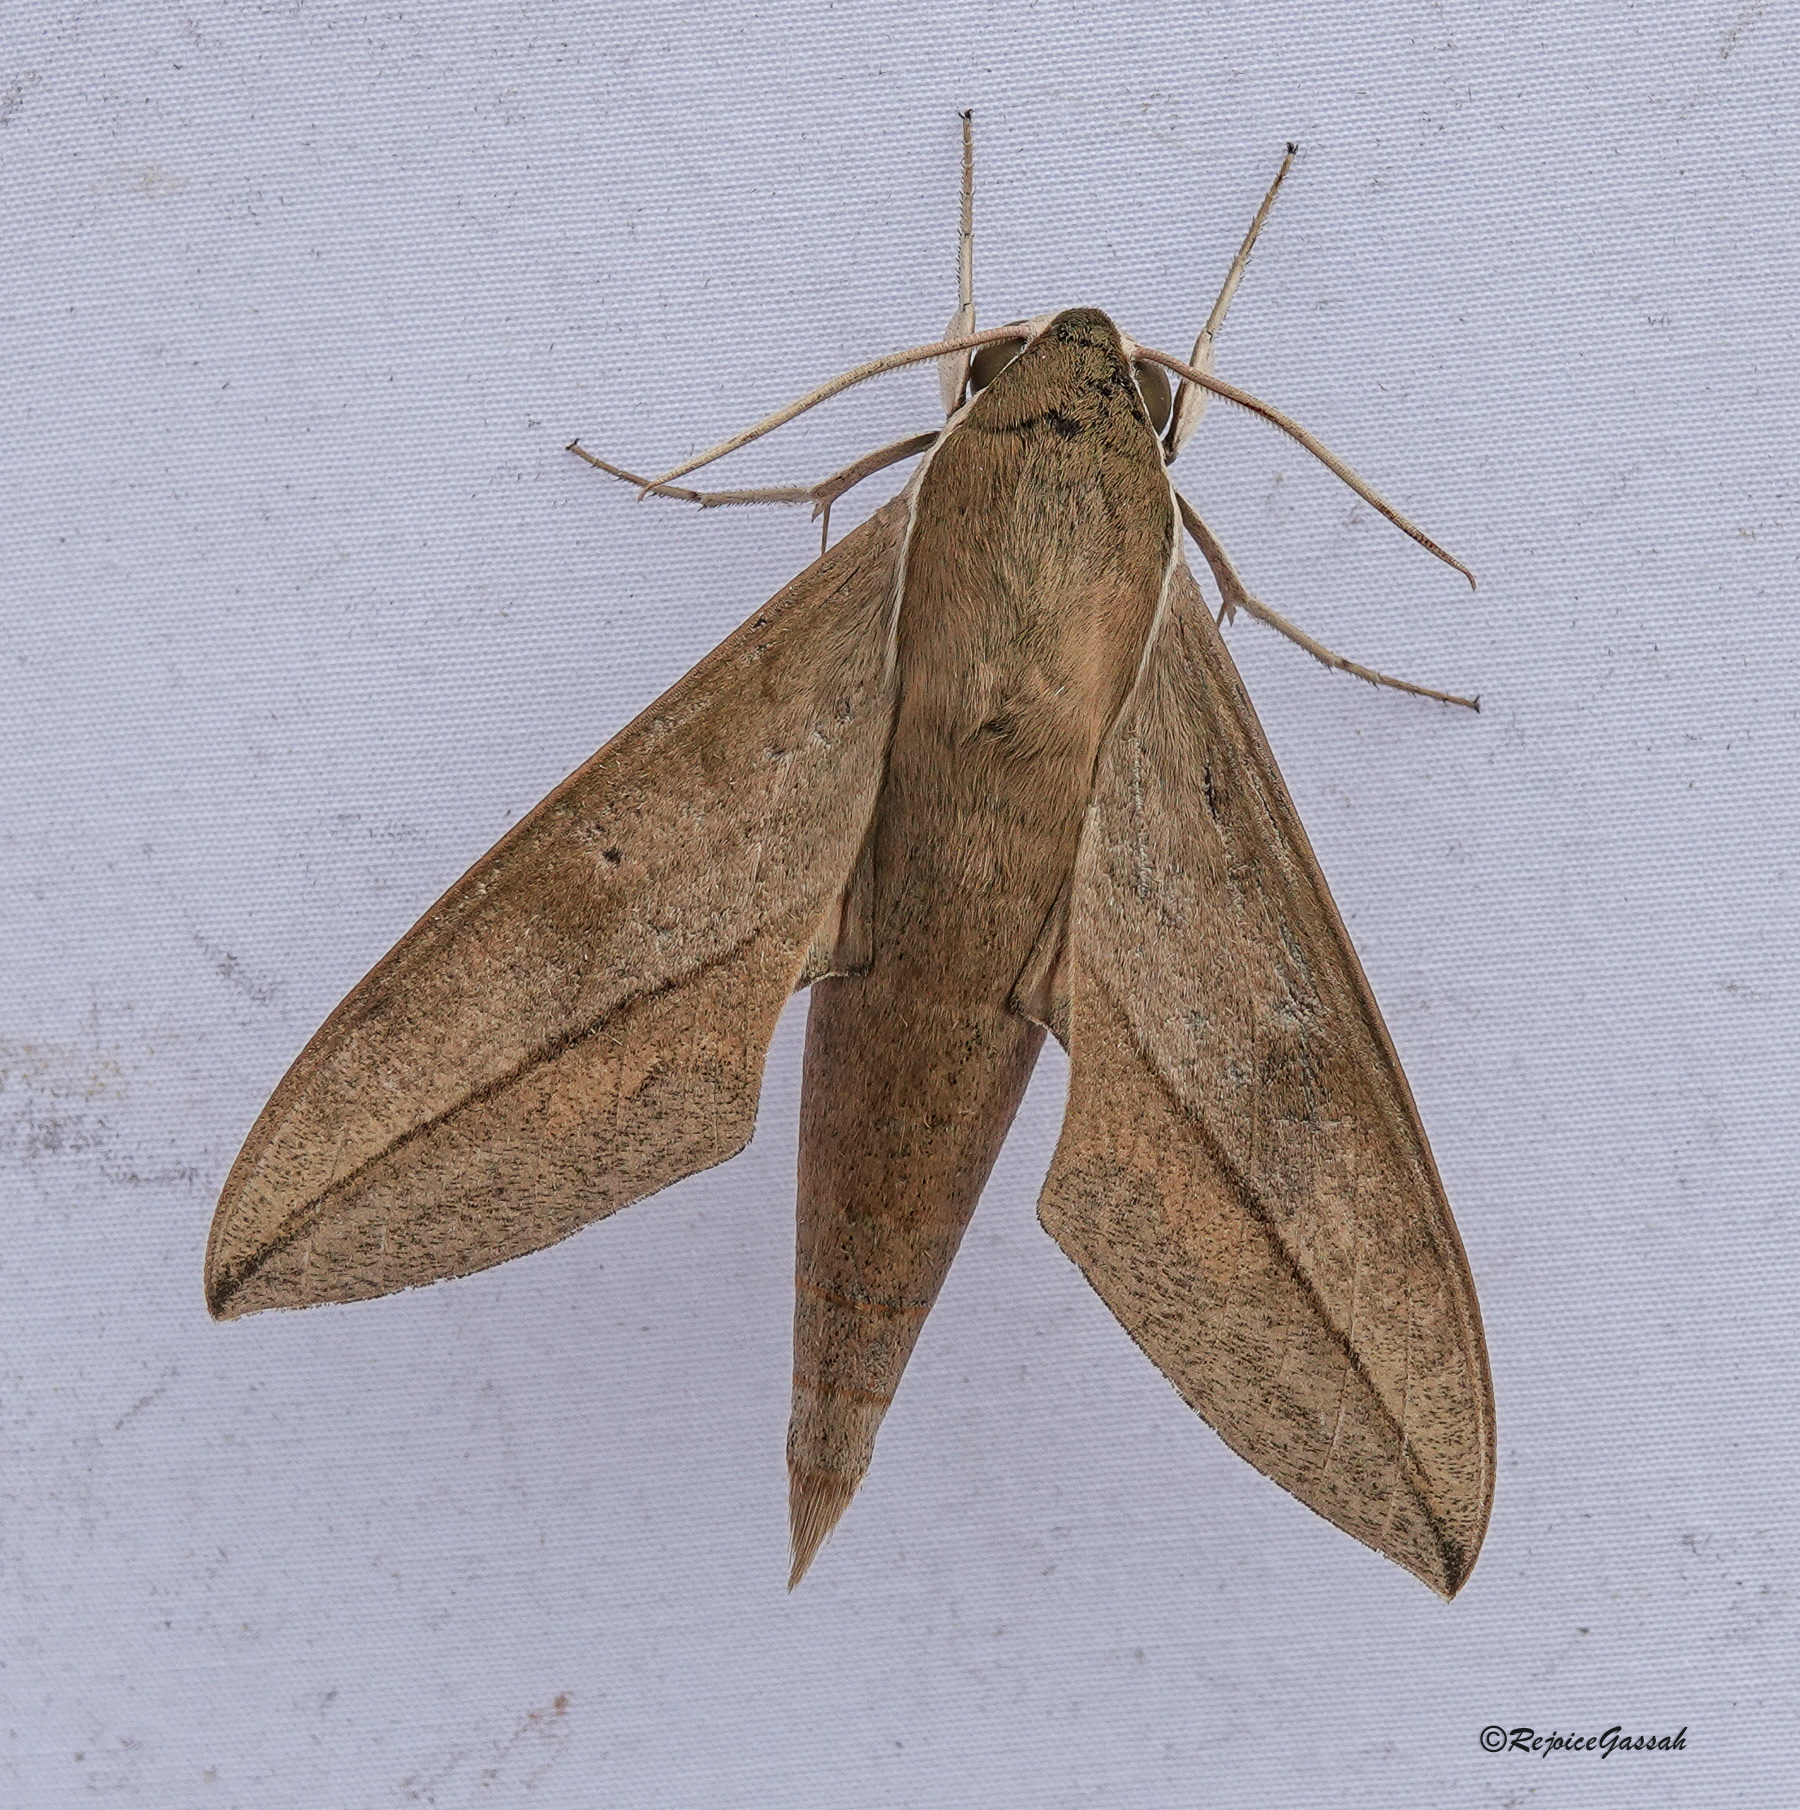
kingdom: Animalia
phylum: Arthropoda
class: Insecta
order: Lepidoptera
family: Sphingidae
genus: Theretra
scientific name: Theretra
